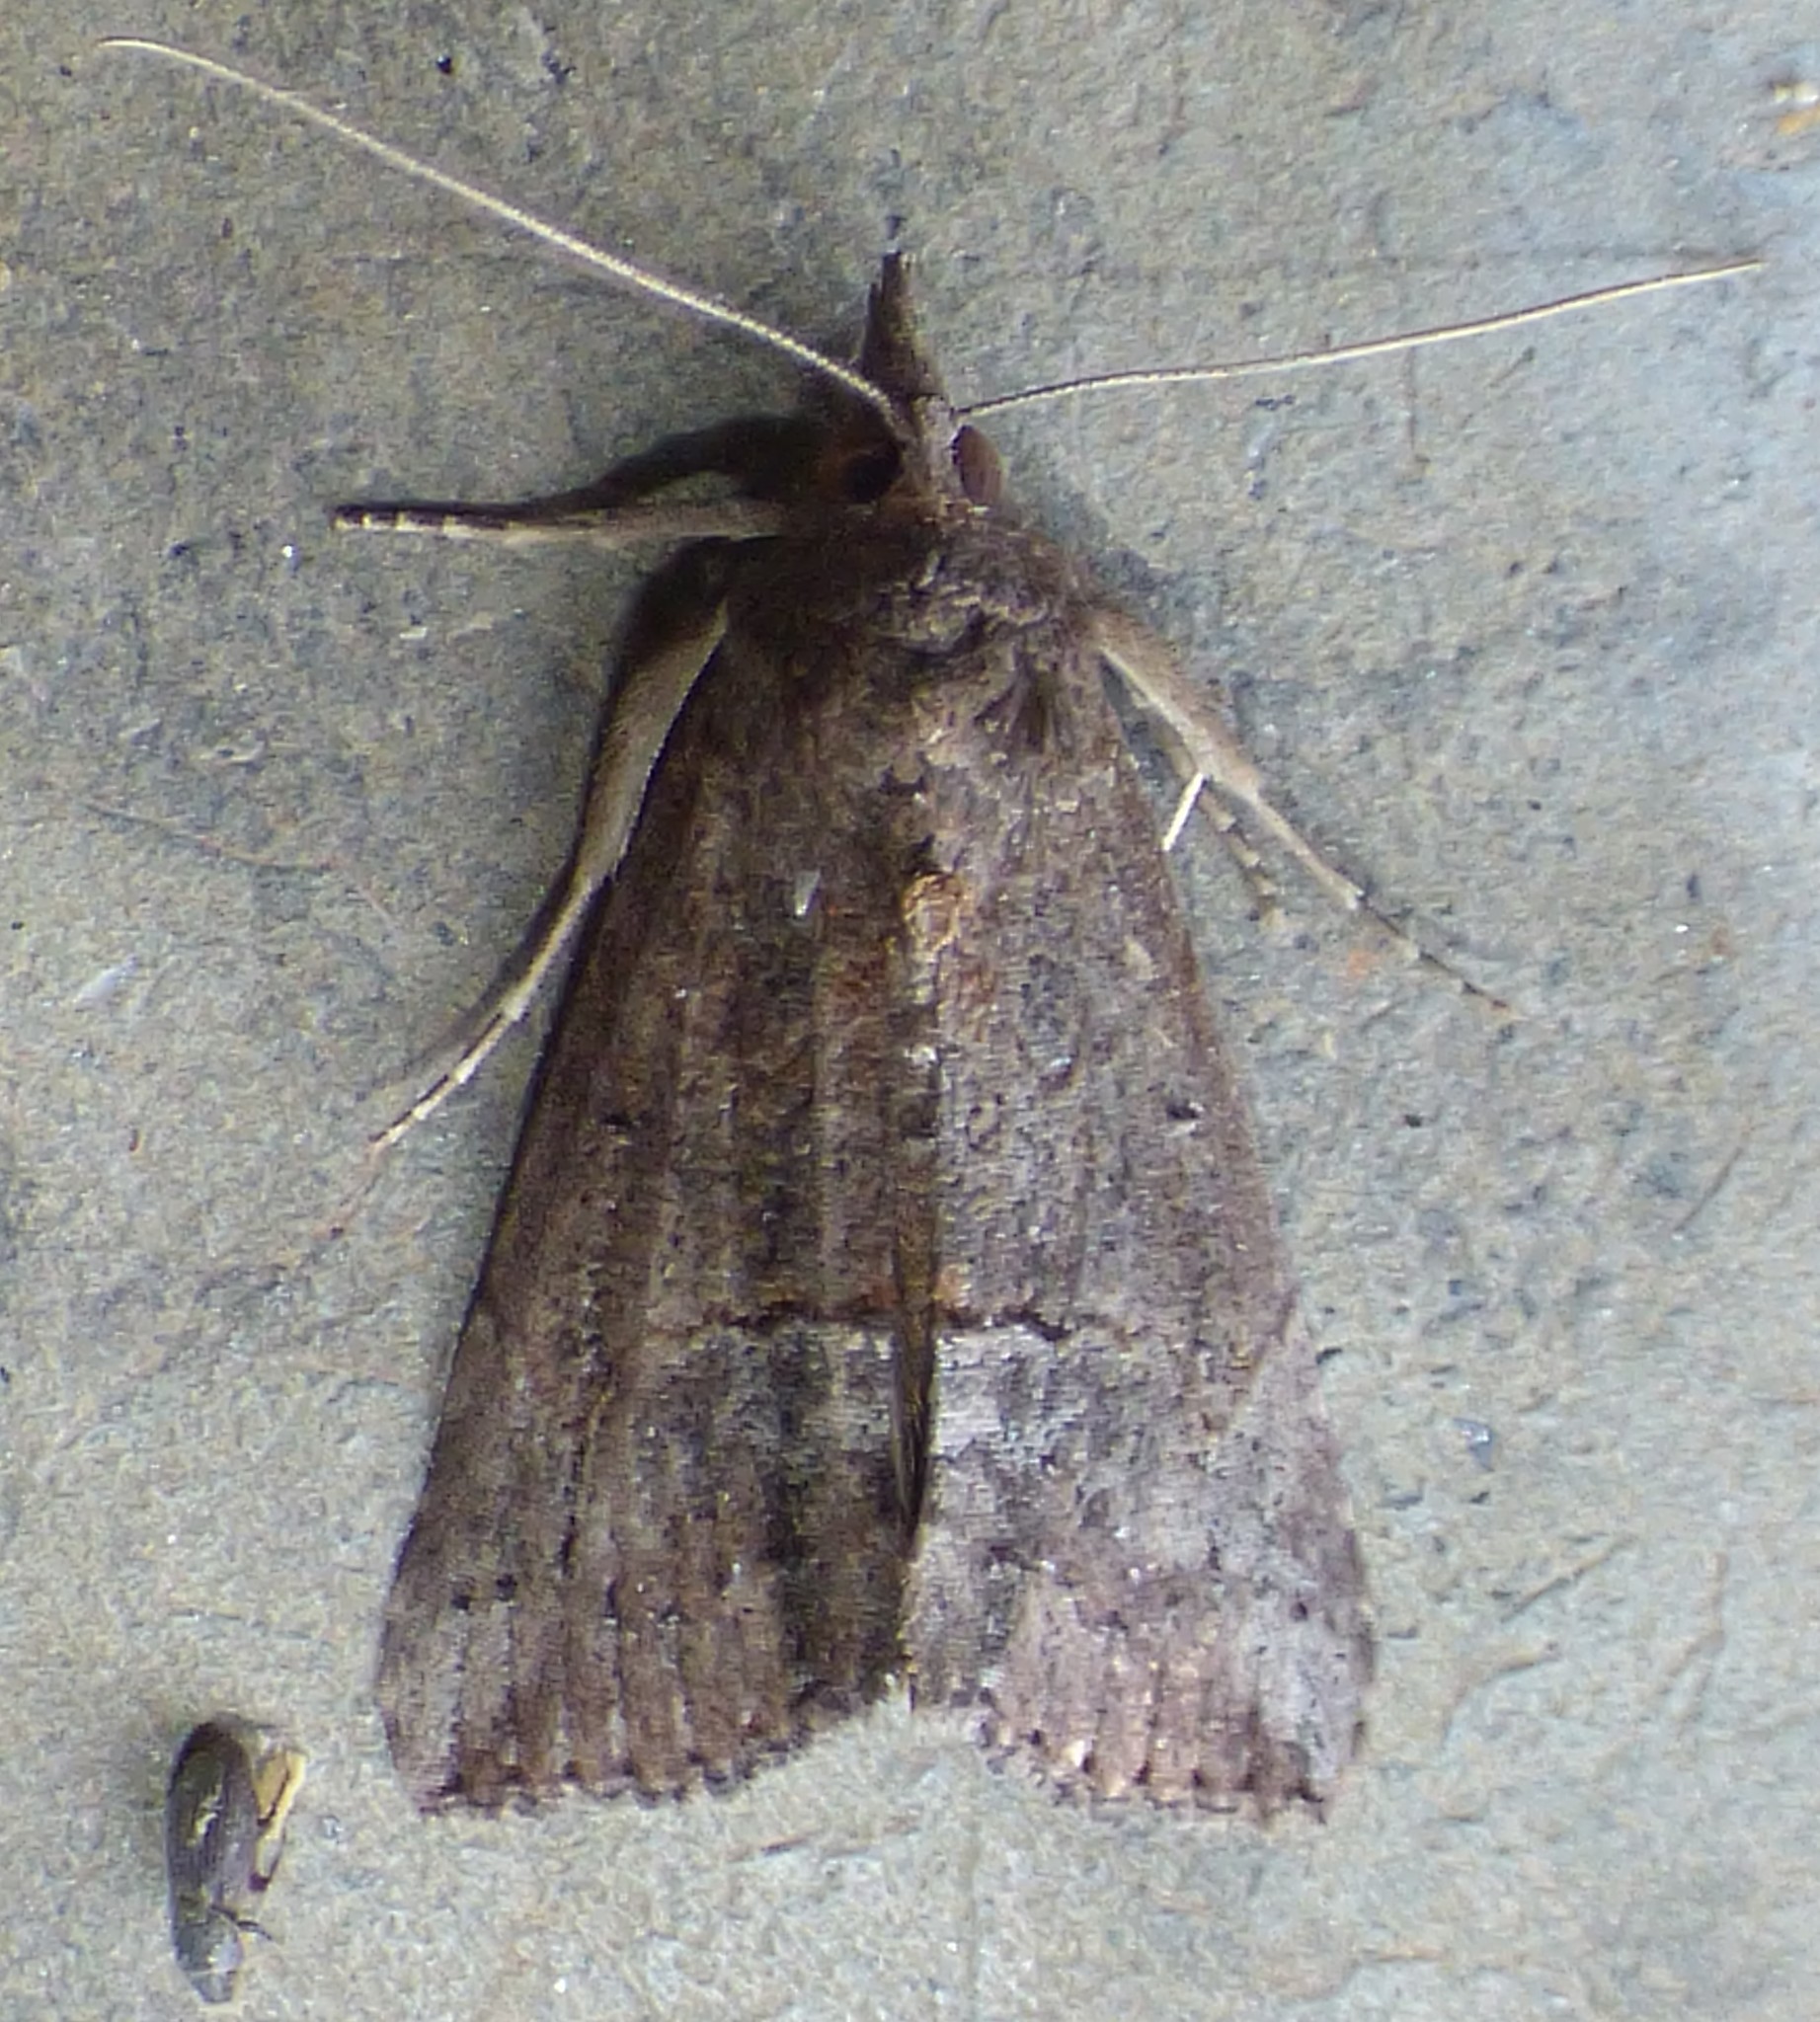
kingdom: Animalia
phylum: Arthropoda
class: Insecta
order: Lepidoptera
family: Erebidae
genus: Hypena
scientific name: Hypena scabra
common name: Green cloverworm
